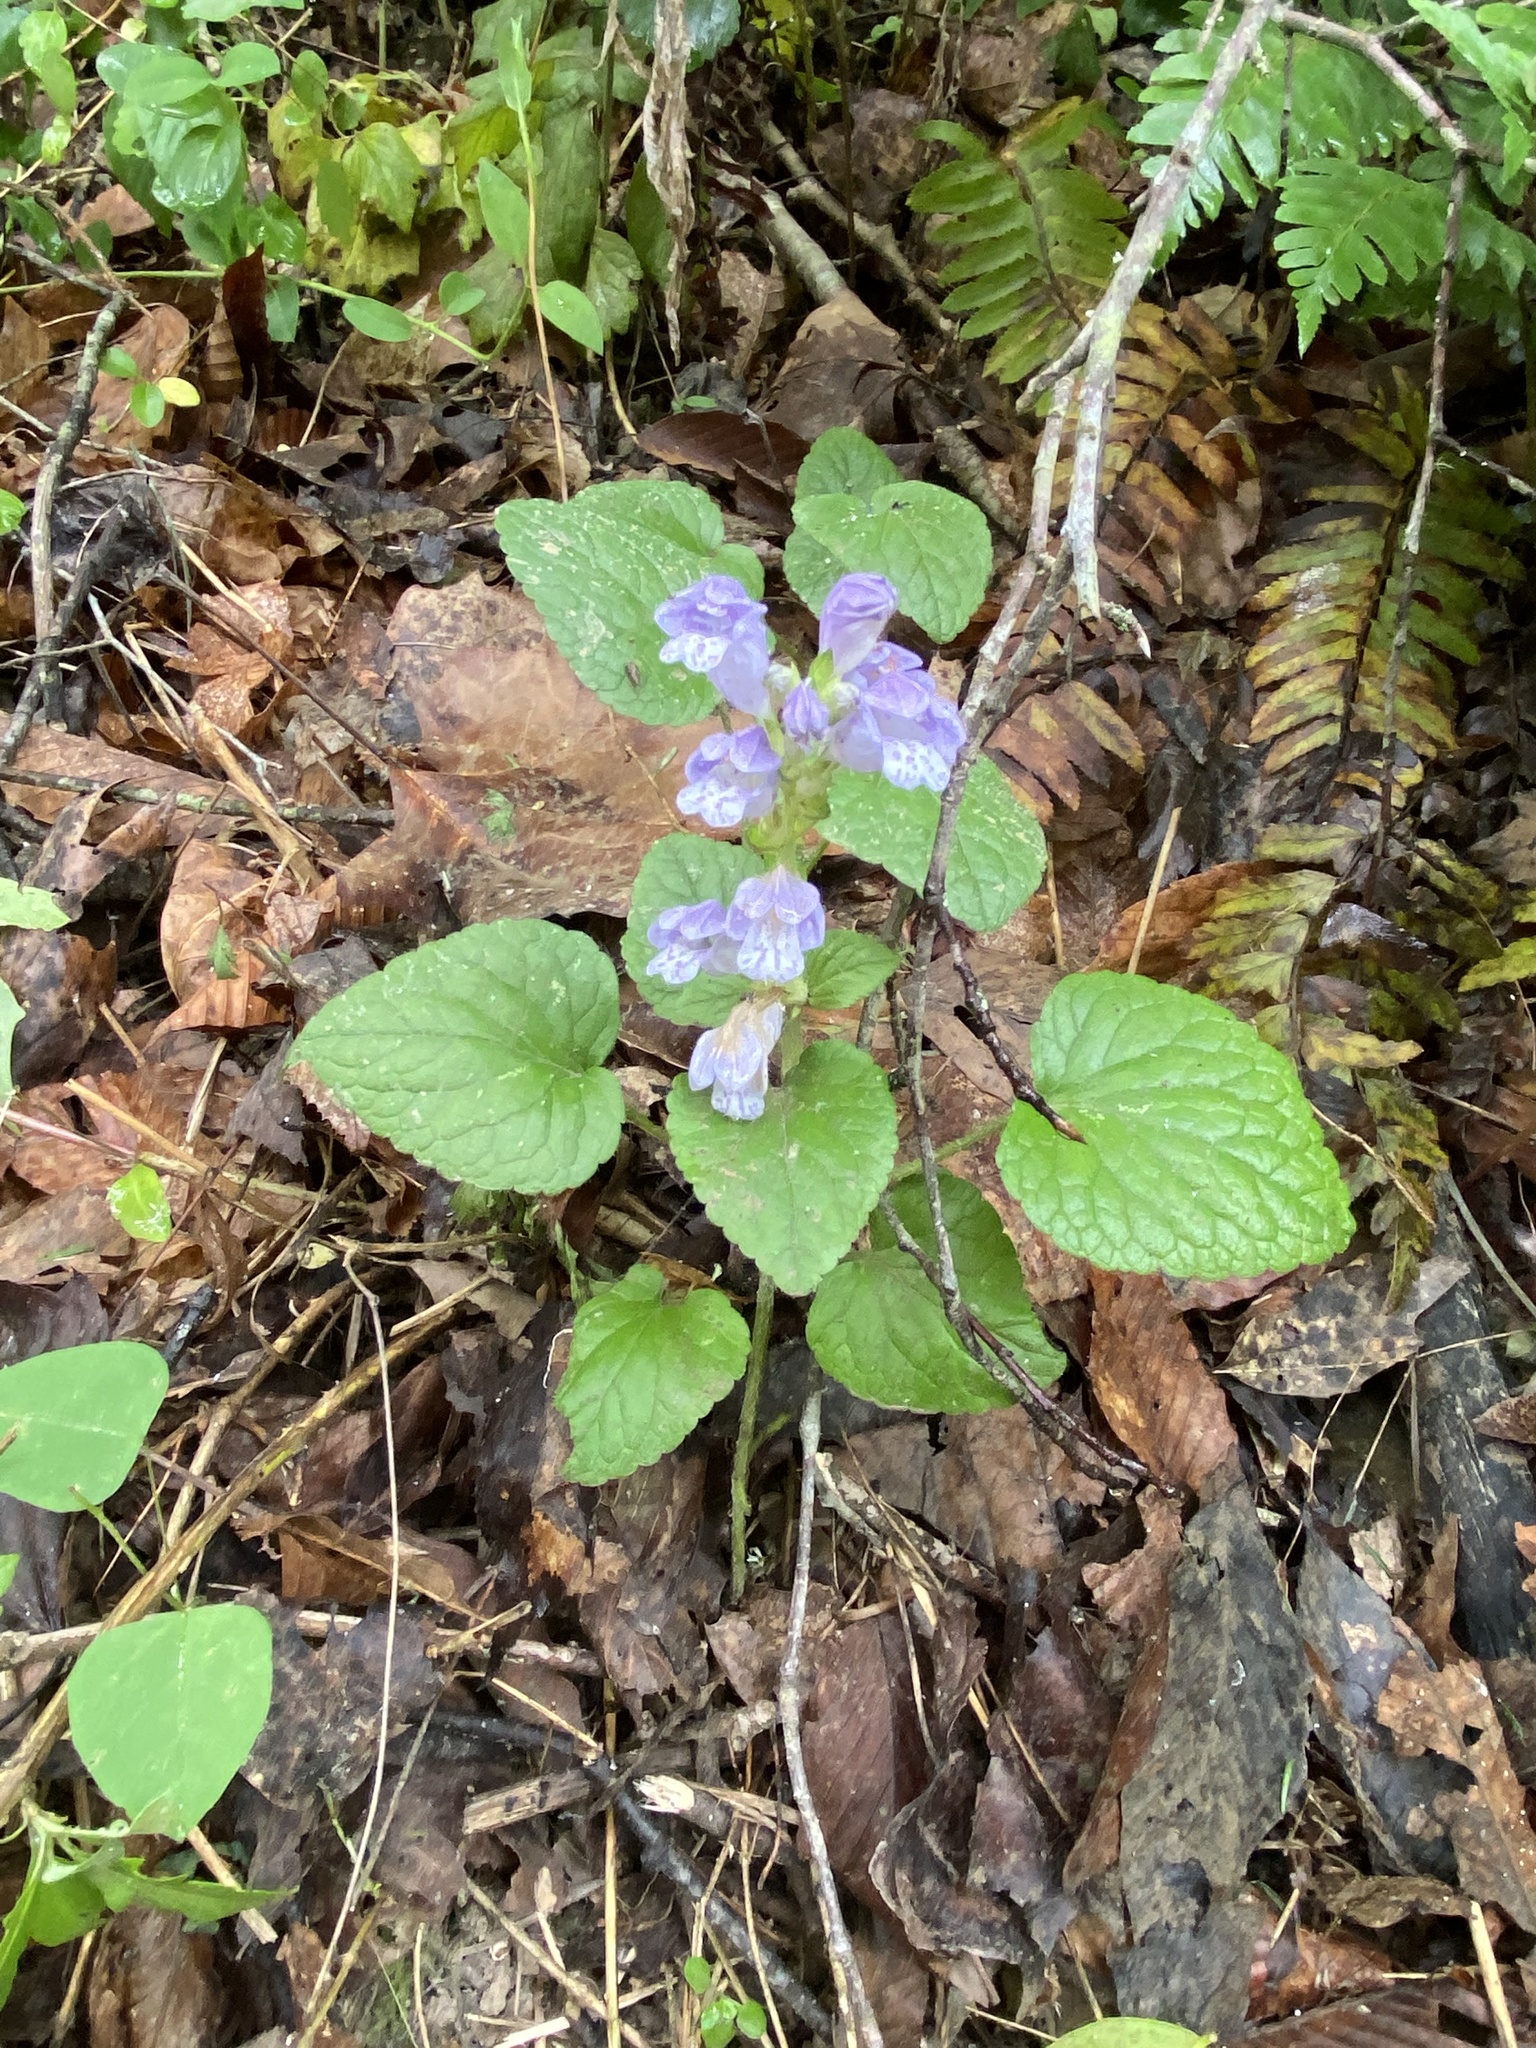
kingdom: Plantae
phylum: Tracheophyta
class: Magnoliopsida
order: Lamiales
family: Lamiaceae
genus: Meehania
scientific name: Meehania cordata
